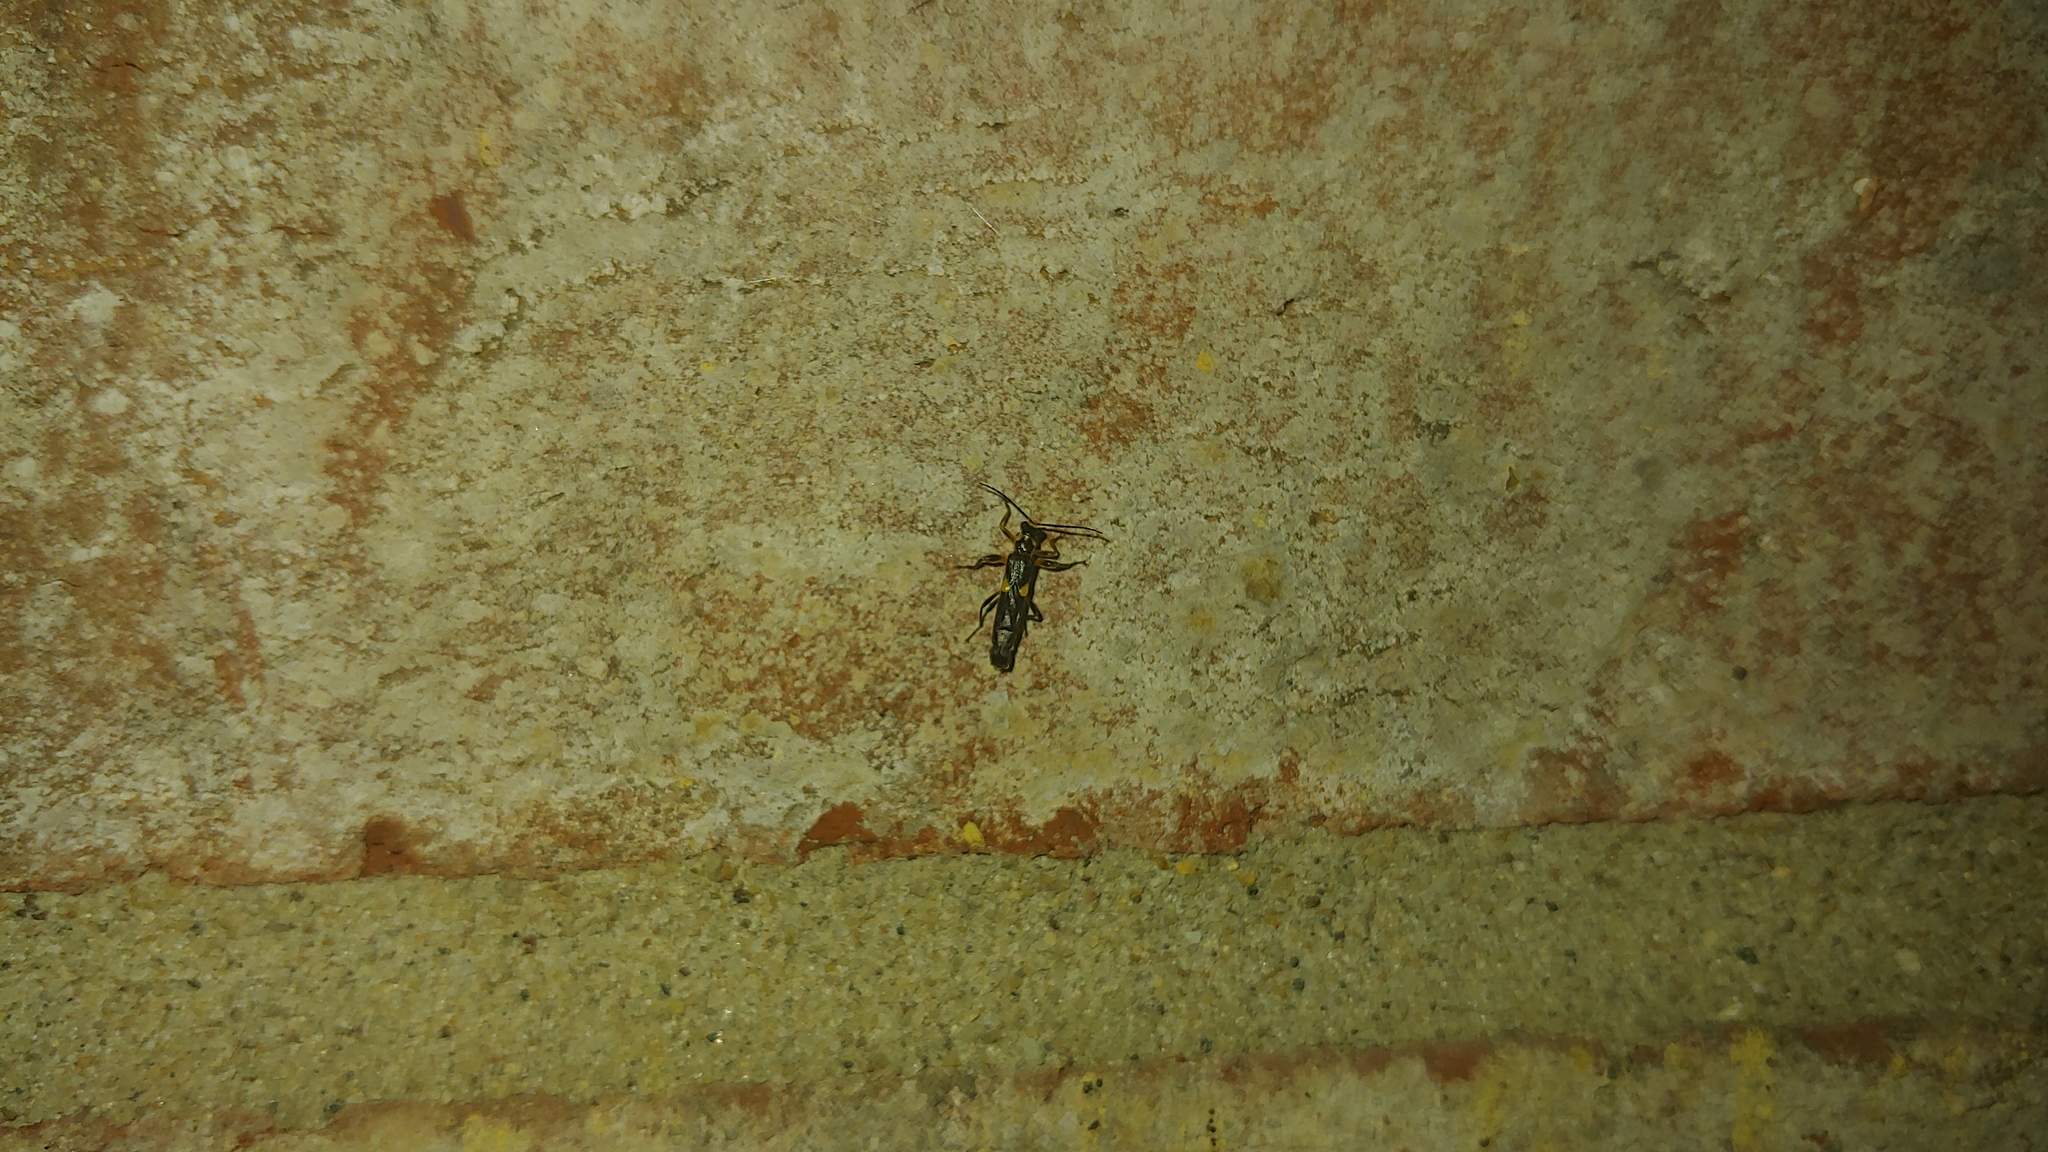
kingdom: Animalia
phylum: Arthropoda
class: Insecta
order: Coleoptera
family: Cantharidae
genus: Trypherus
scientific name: Trypherus frisoni
